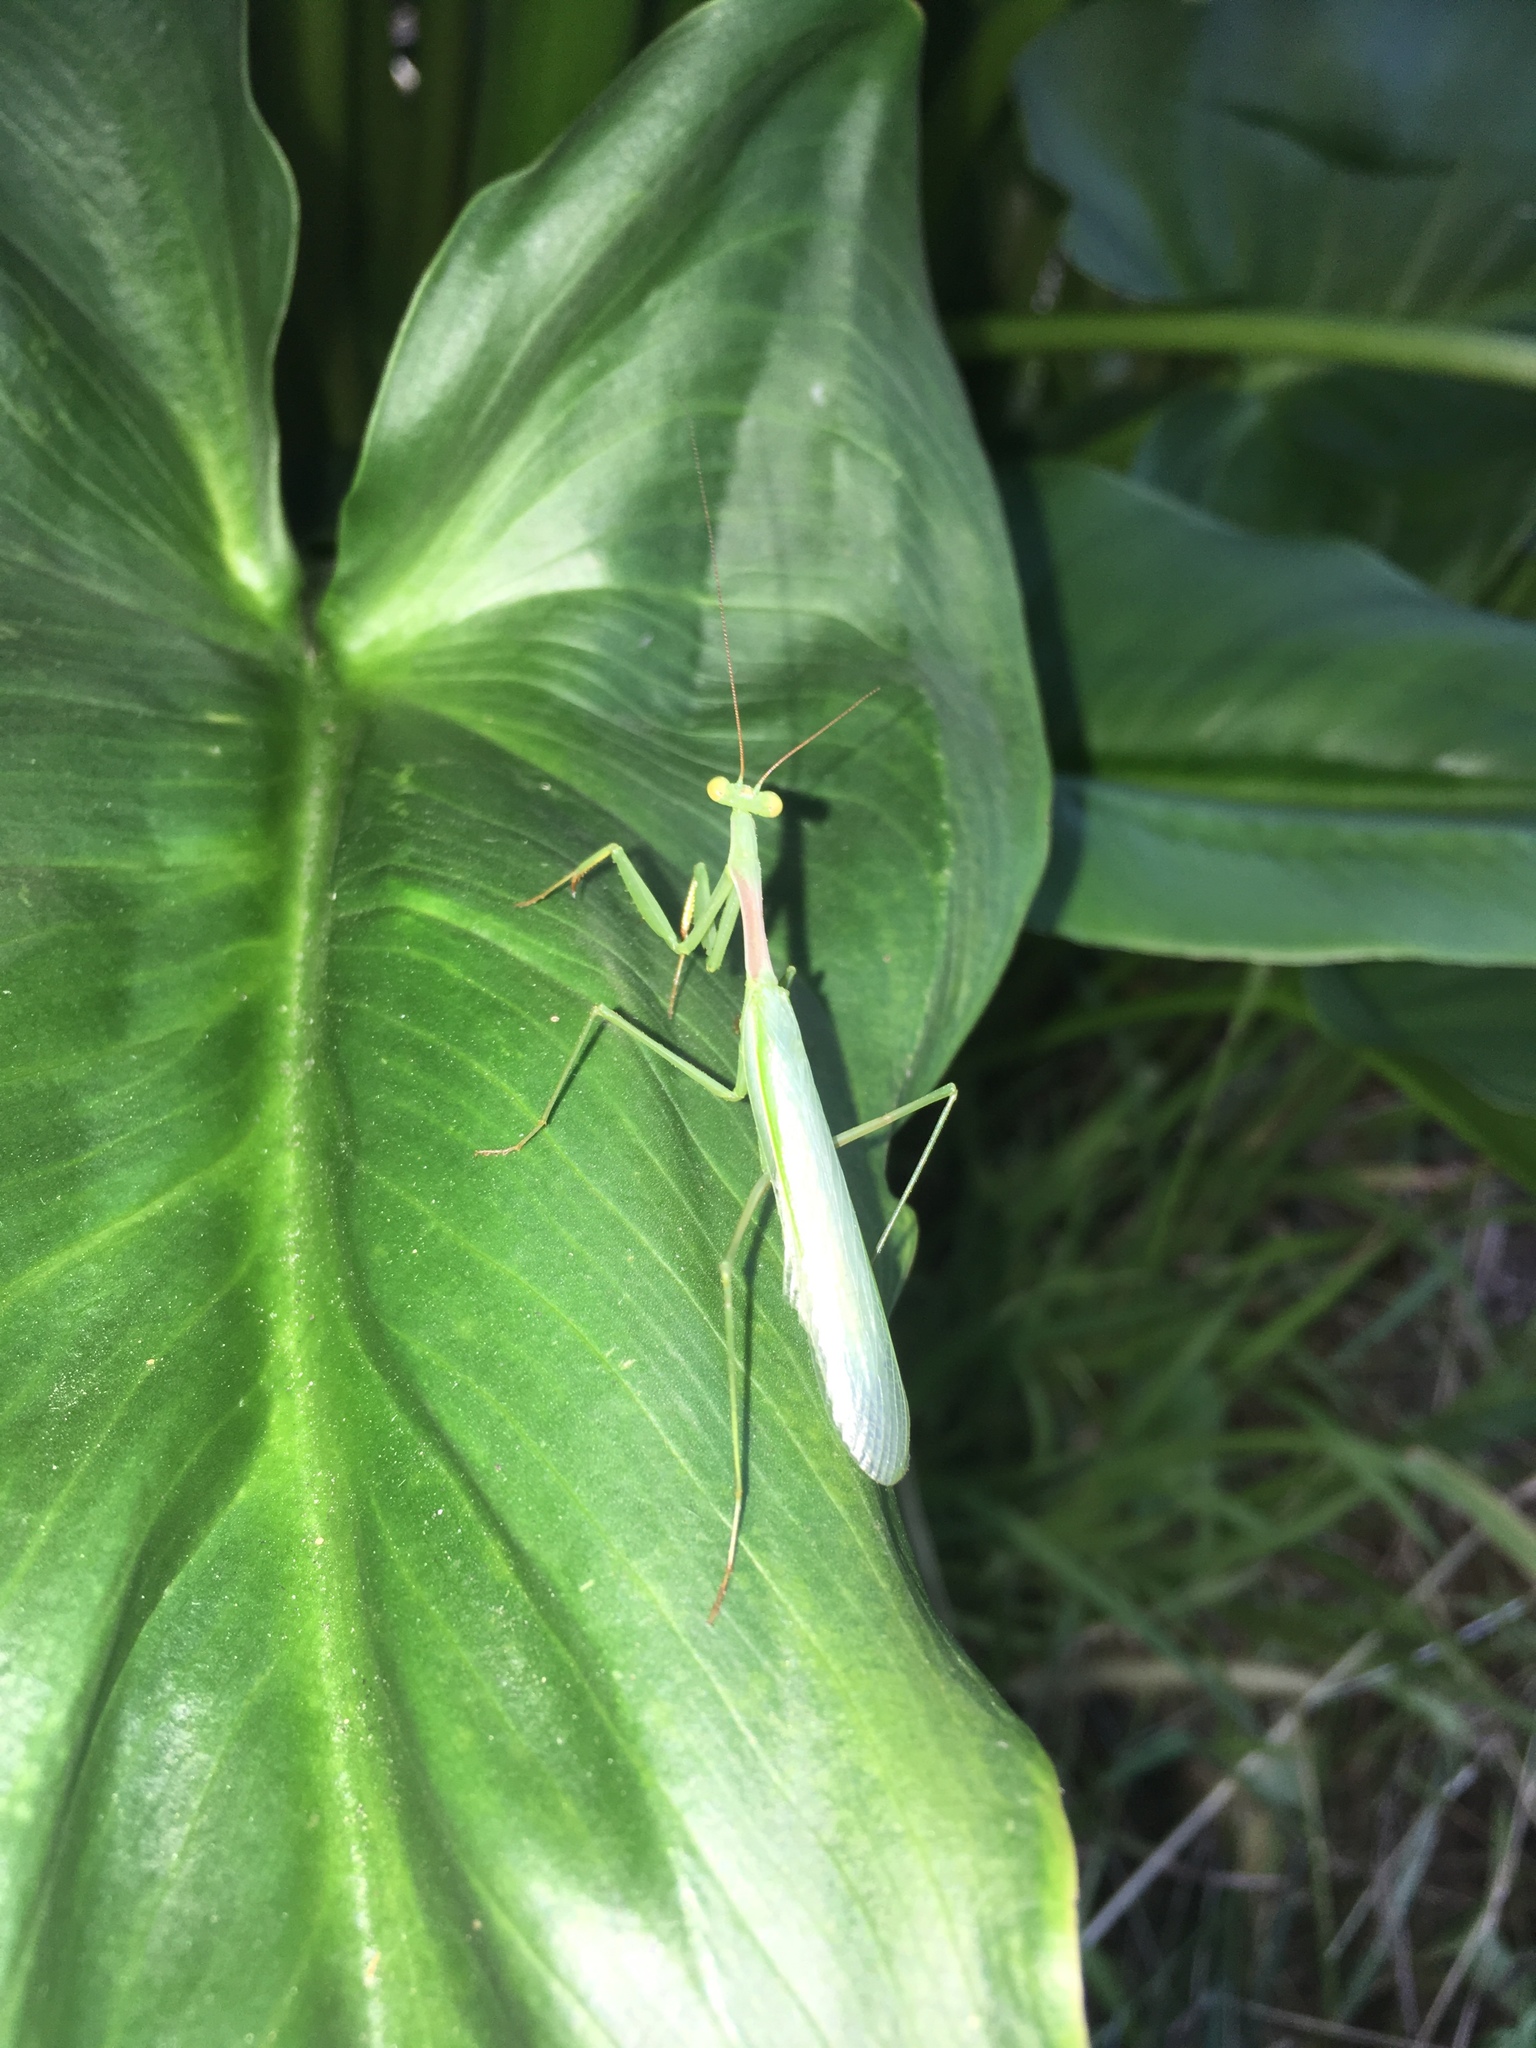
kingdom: Animalia
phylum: Arthropoda
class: Insecta
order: Mantodea
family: Miomantidae
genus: Miomantis
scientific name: Miomantis caffra
